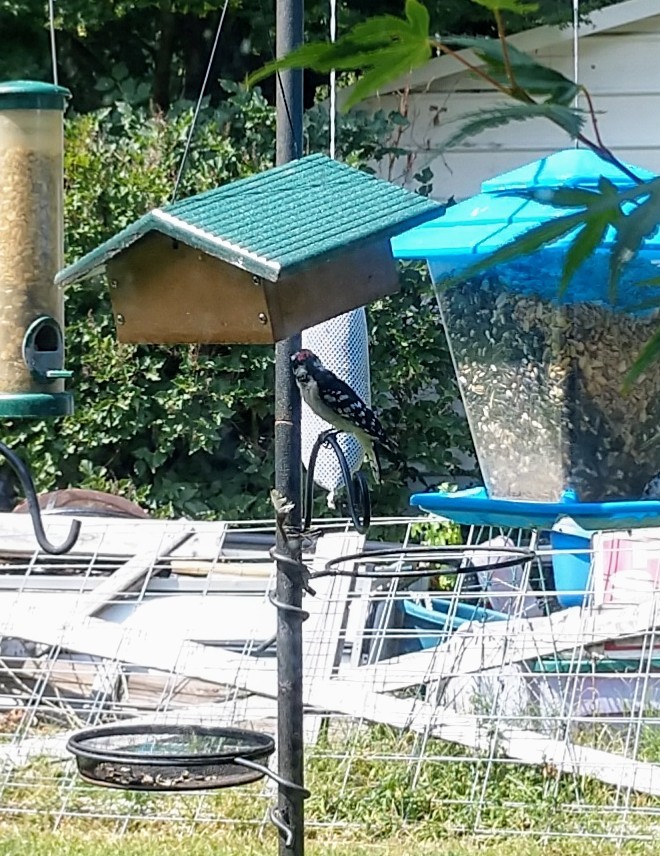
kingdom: Animalia
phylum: Chordata
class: Aves
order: Piciformes
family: Picidae
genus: Dryobates
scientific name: Dryobates pubescens
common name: Downy woodpecker
